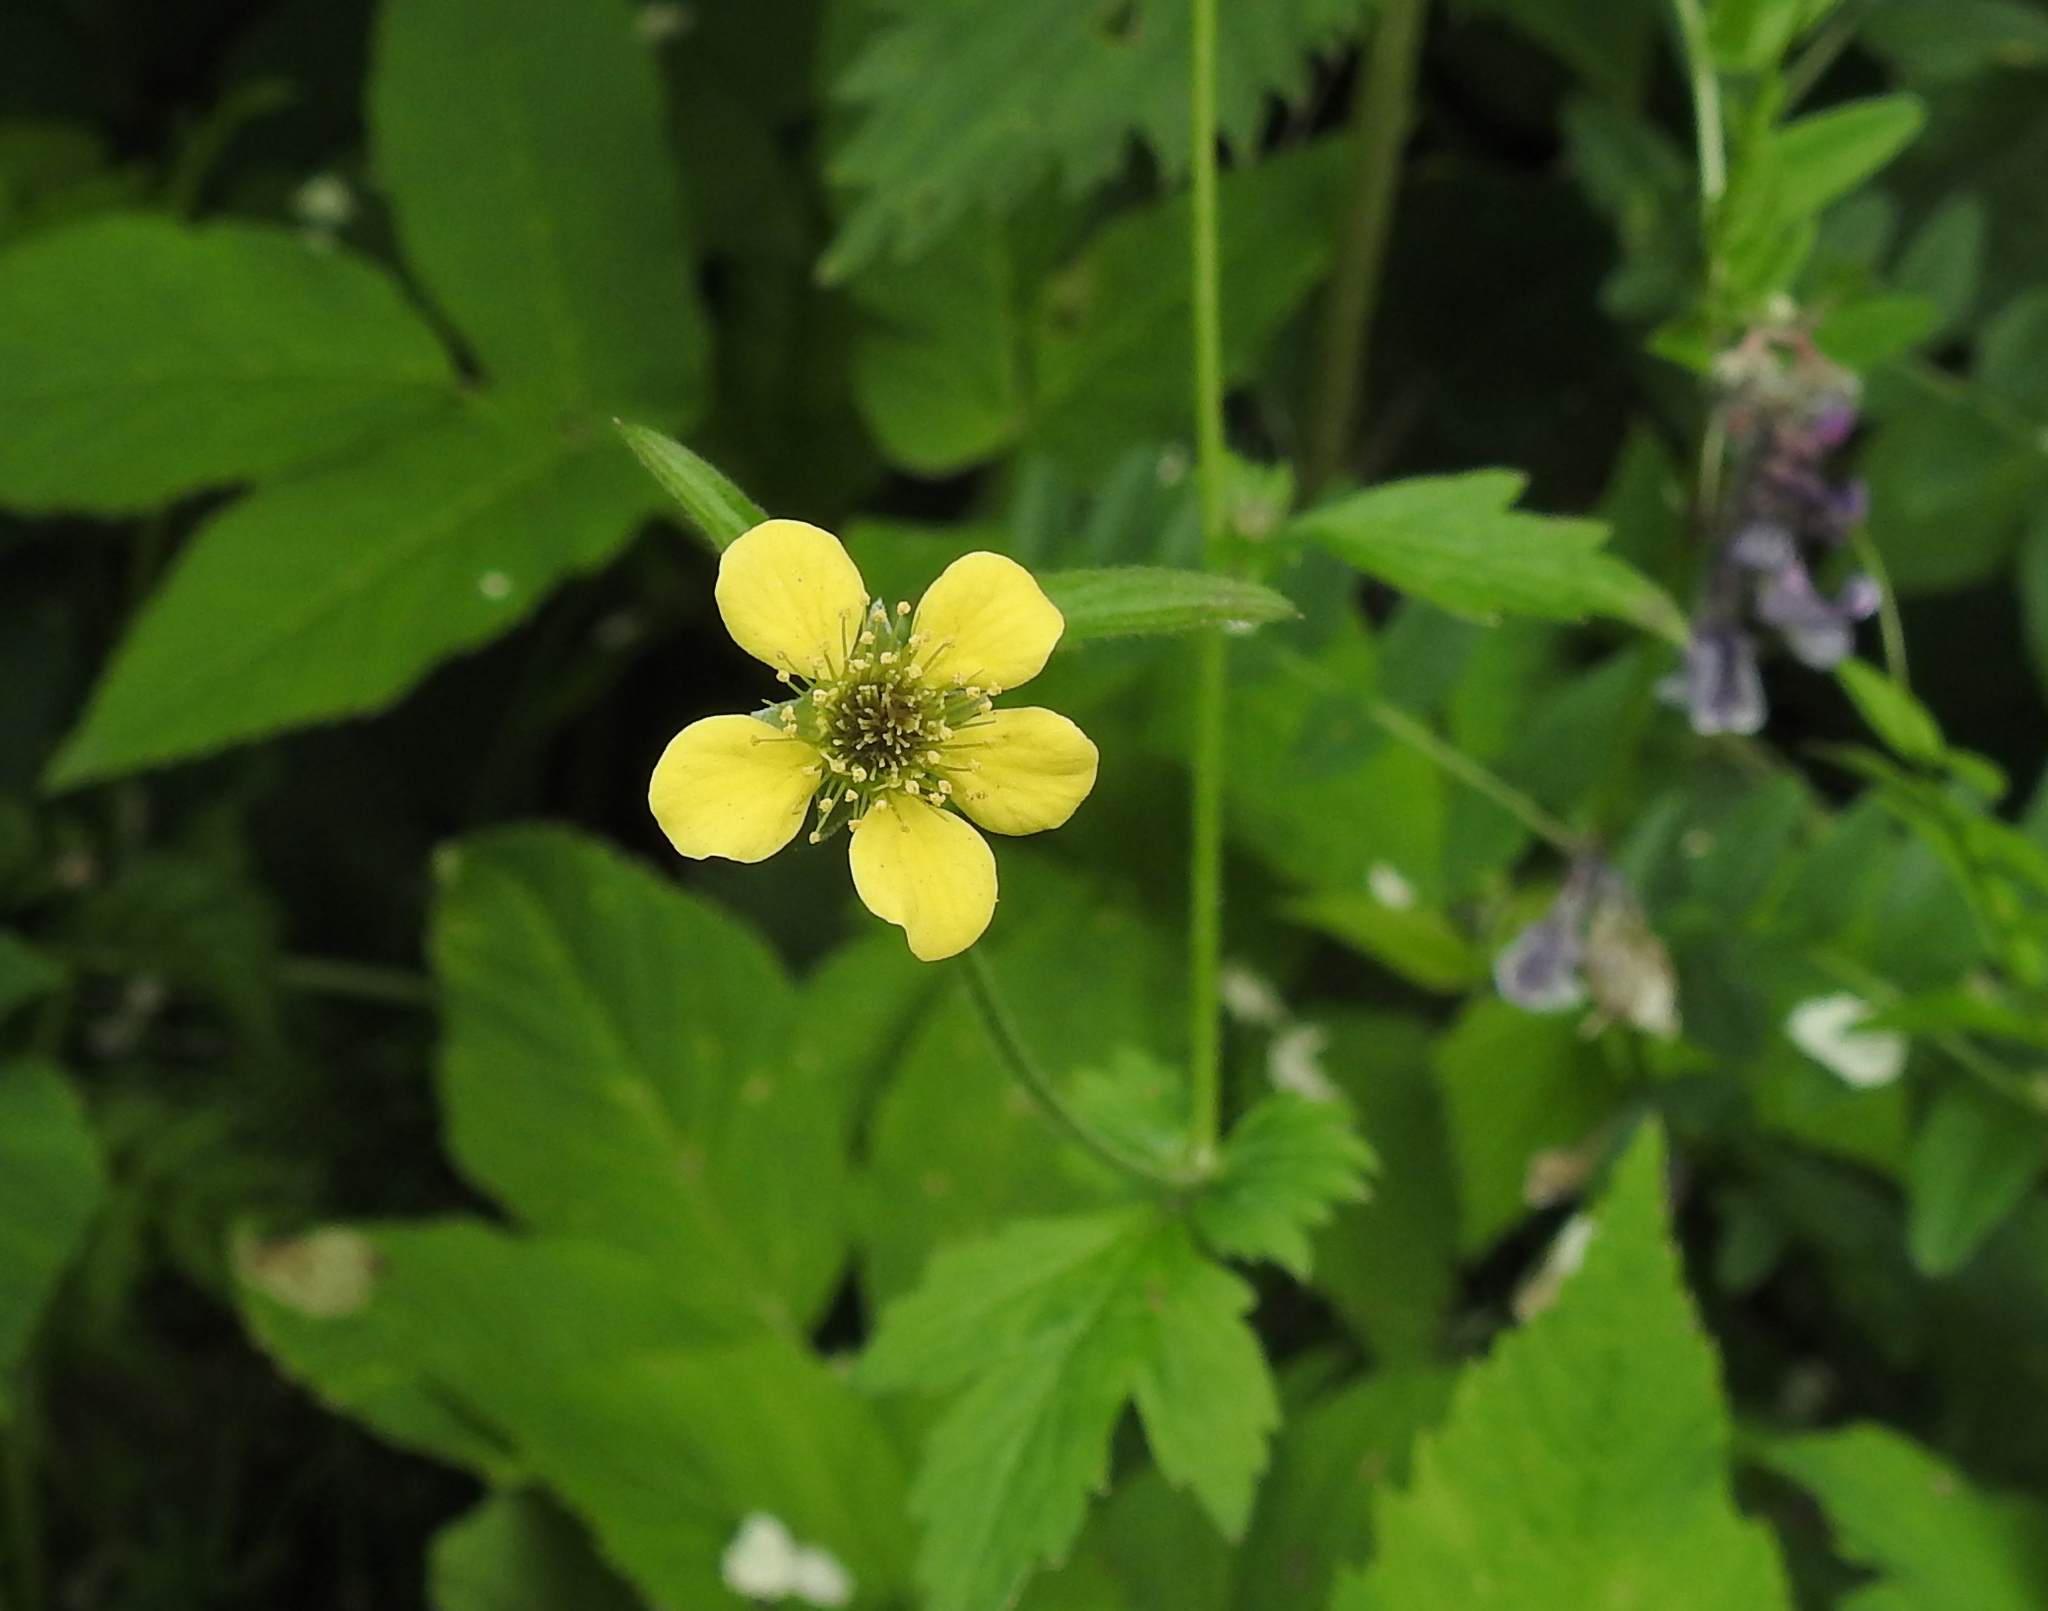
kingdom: Plantae
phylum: Tracheophyta
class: Magnoliopsida
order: Rosales
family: Rosaceae
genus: Geum
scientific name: Geum urbanum
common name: Wood avens
